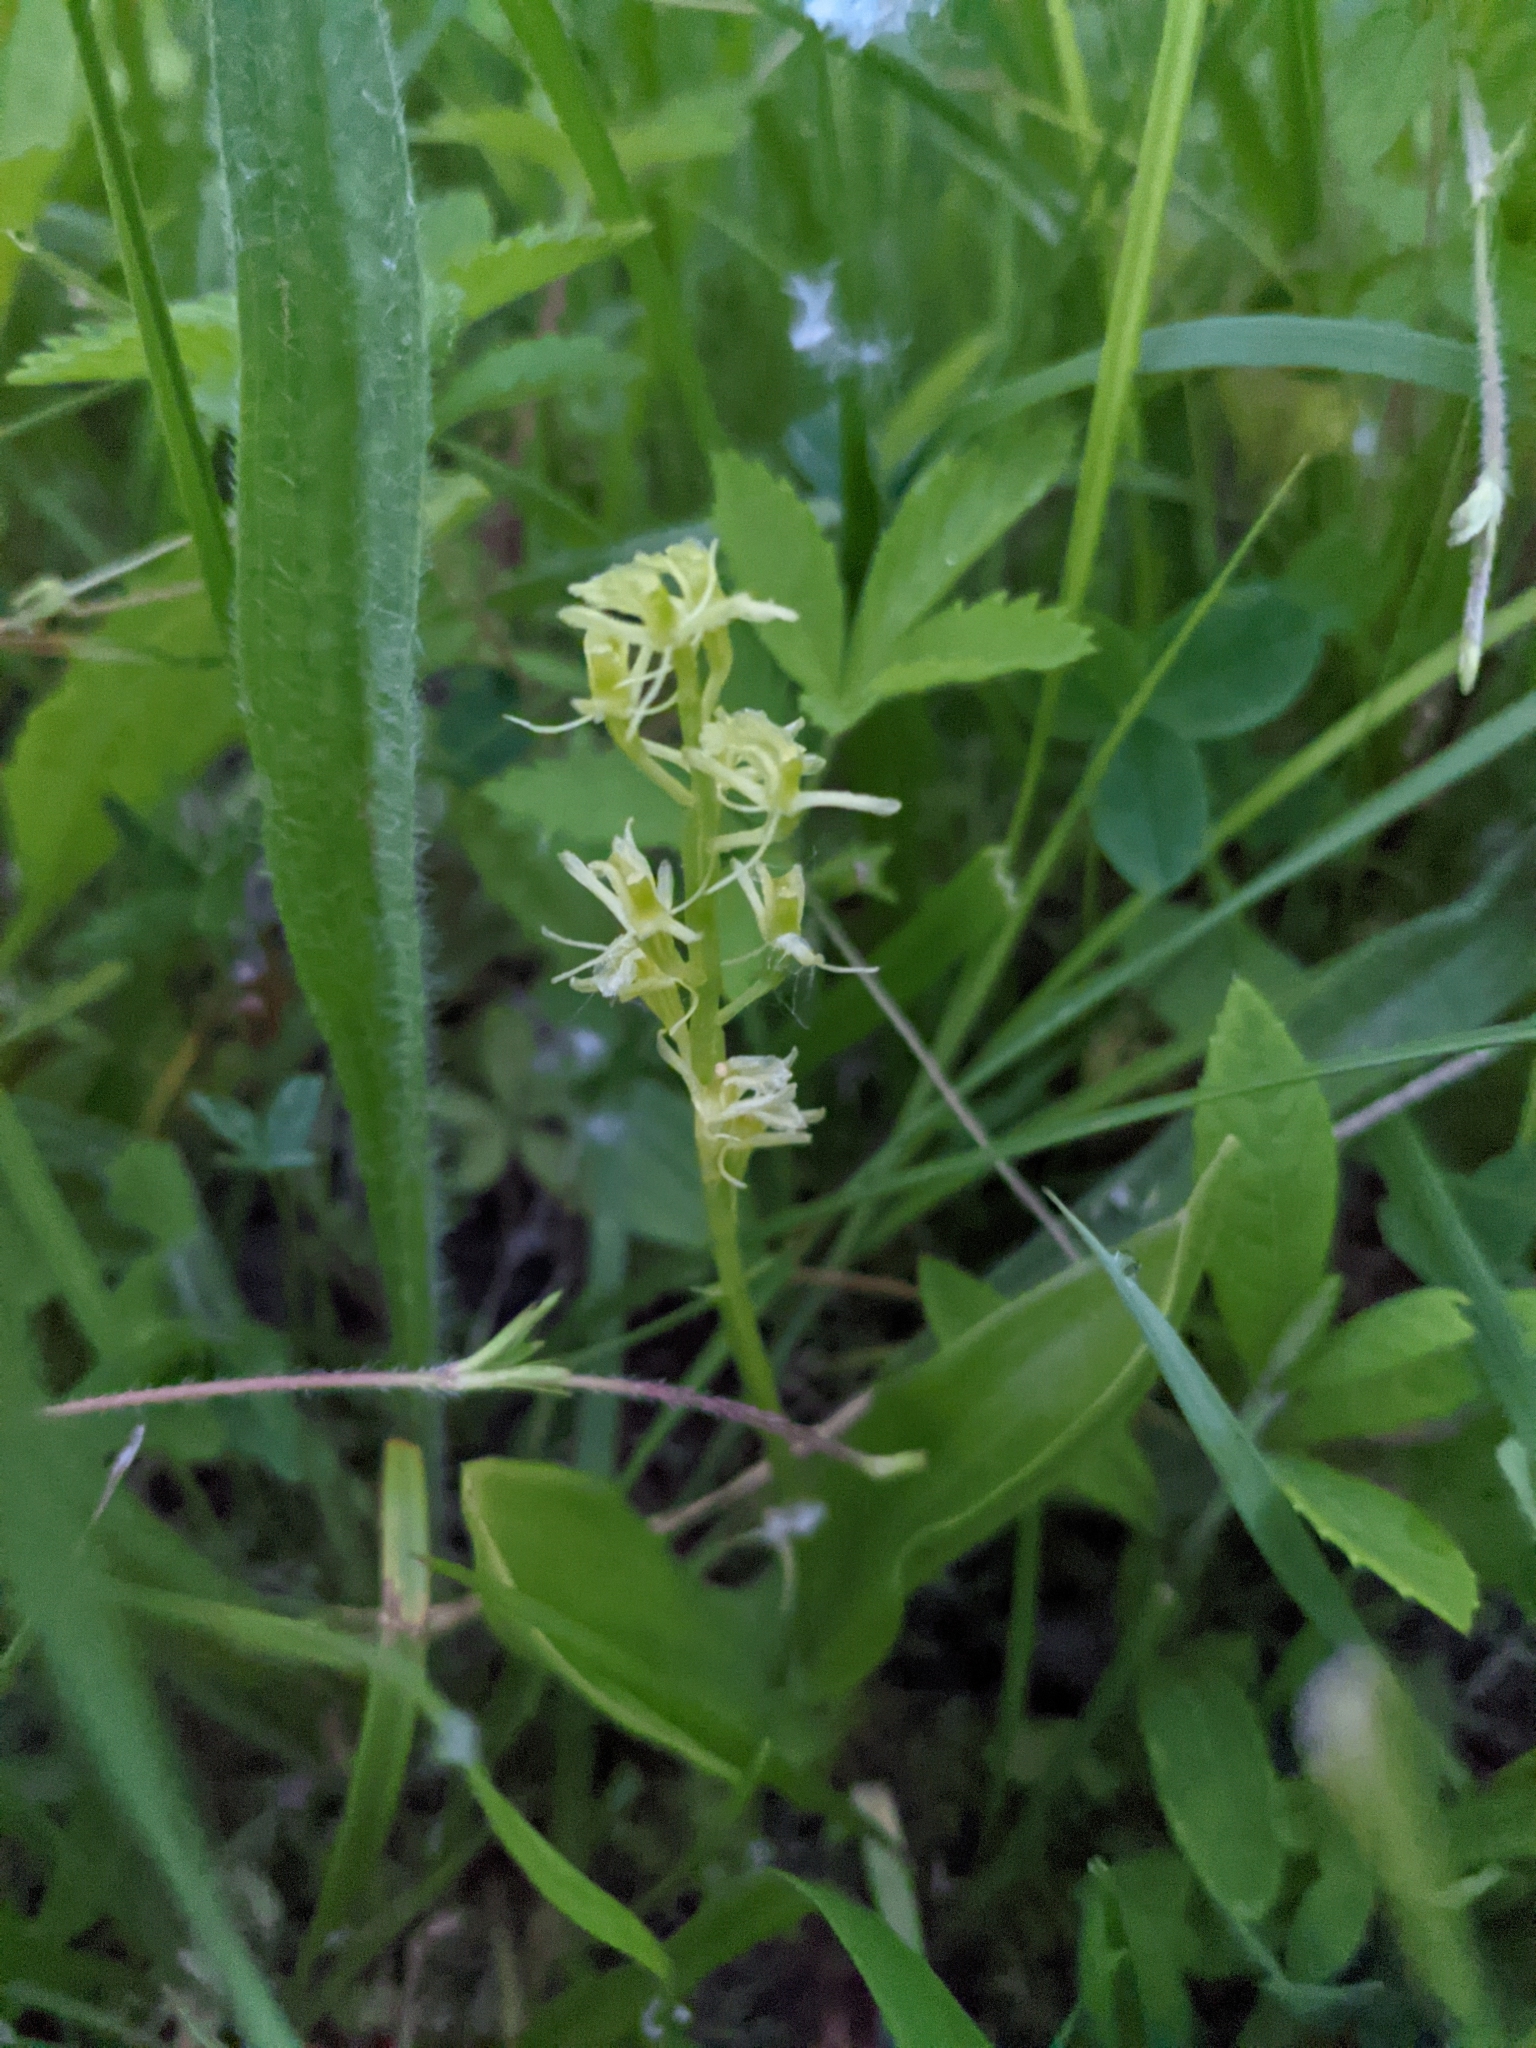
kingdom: Animalia
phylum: Arthropoda
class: Insecta
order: Coleoptera
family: Curculionidae
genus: Liparis
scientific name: Liparis loeselii
